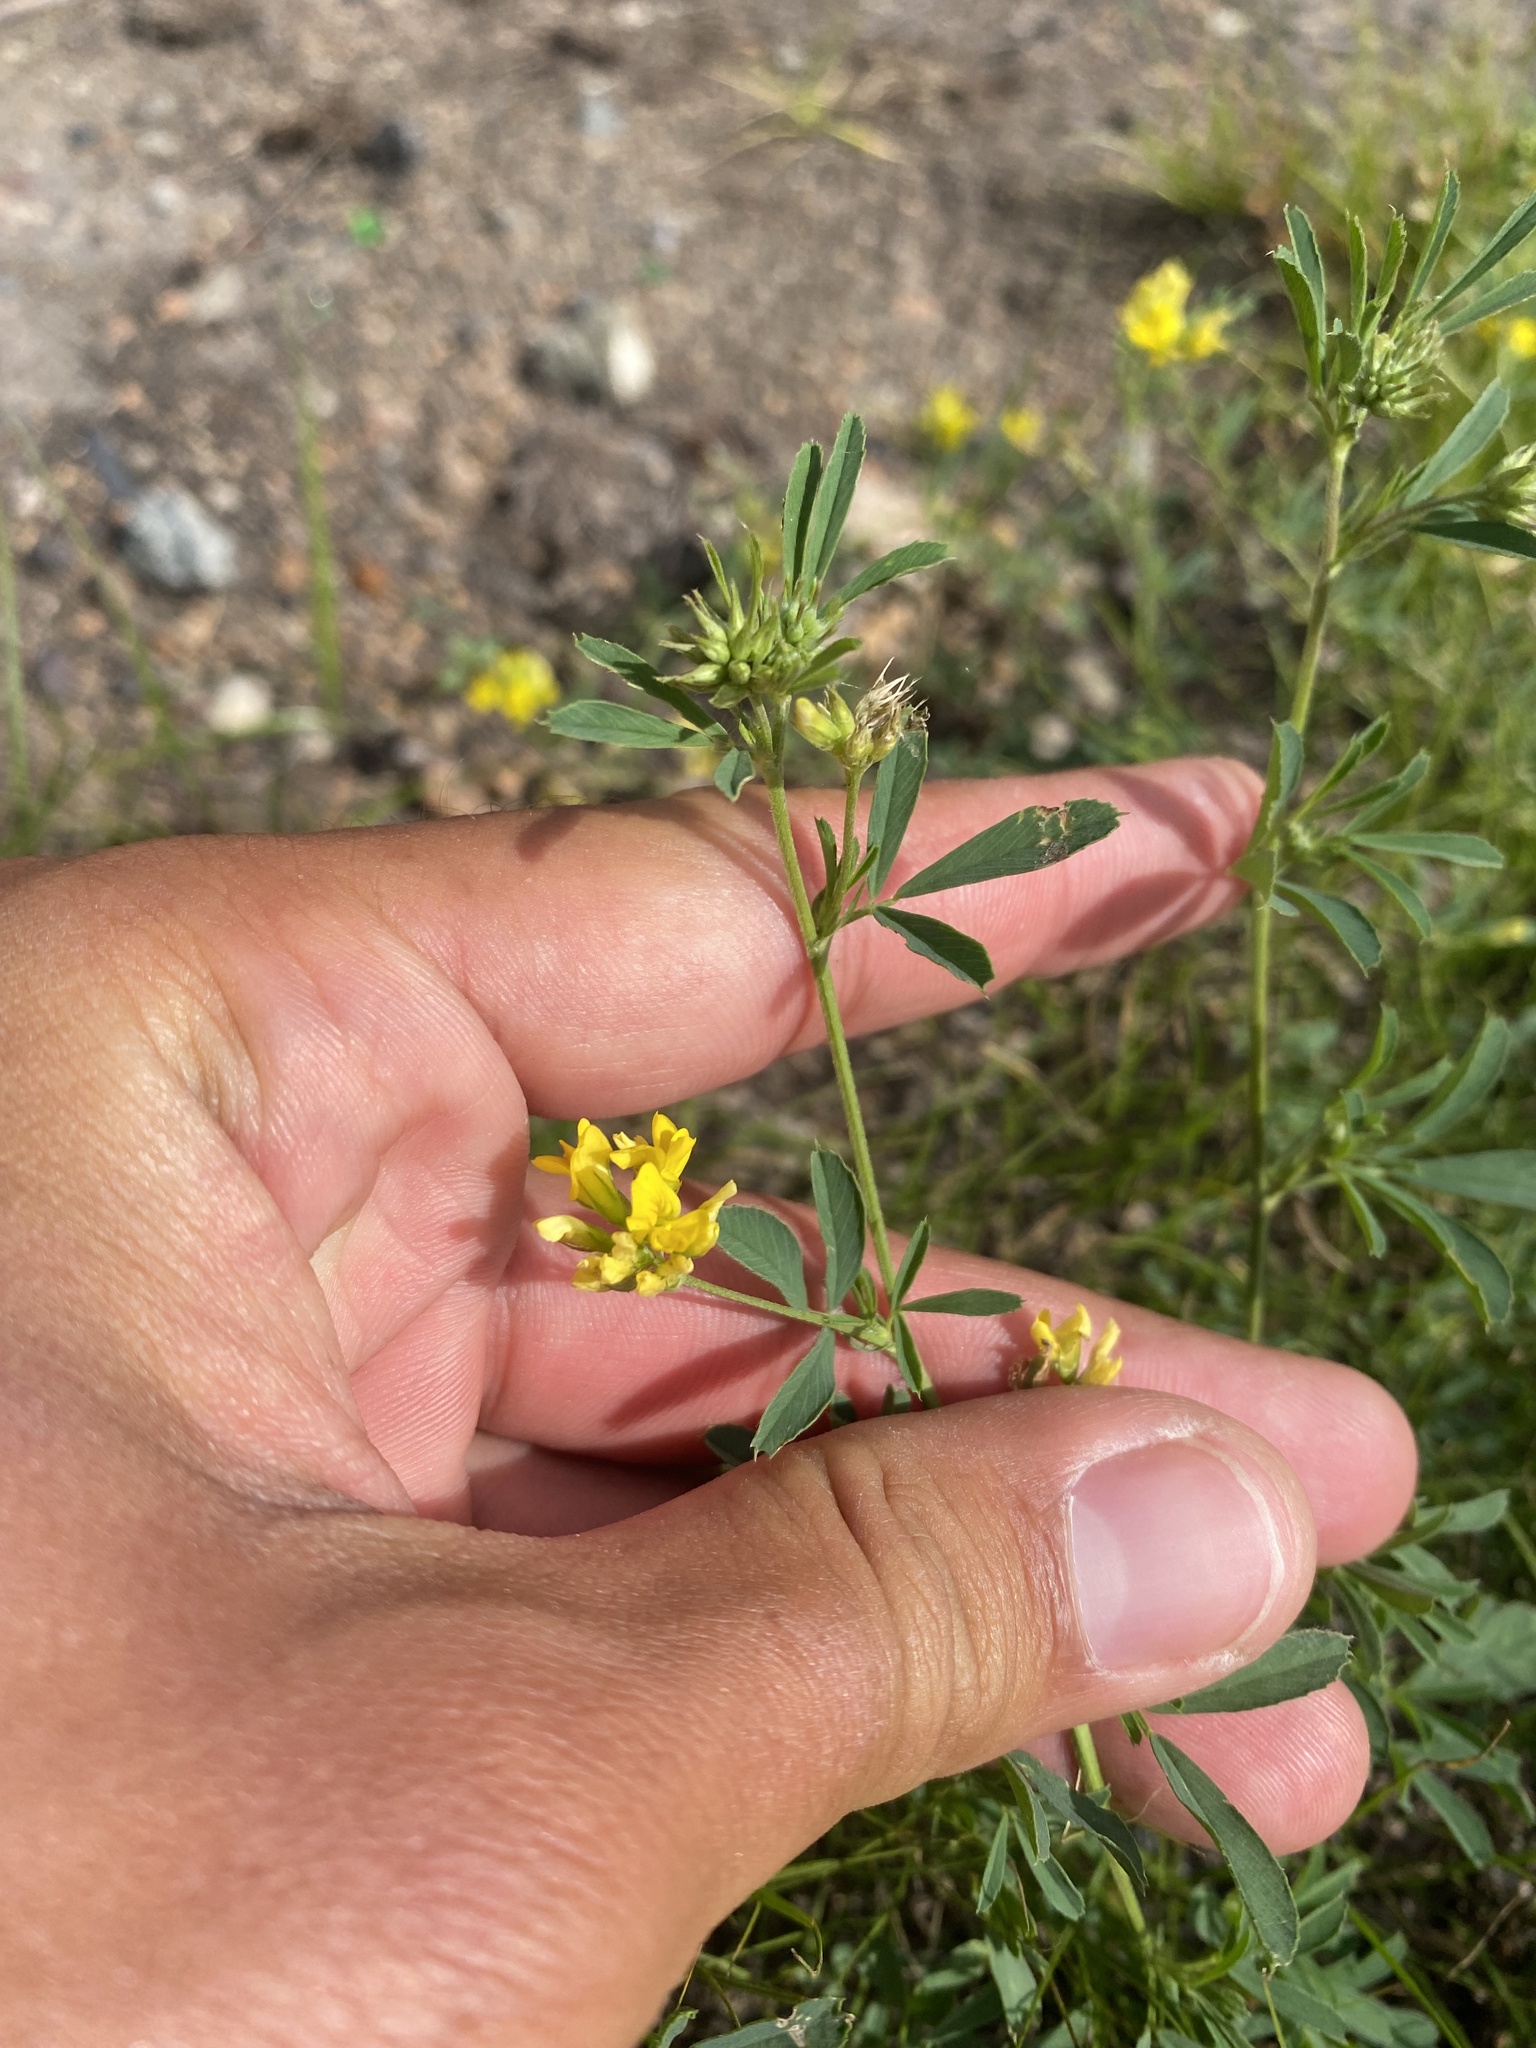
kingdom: Plantae
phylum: Tracheophyta
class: Magnoliopsida
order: Fabales
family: Fabaceae
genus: Medicago
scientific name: Medicago falcata
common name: Sickle medick
